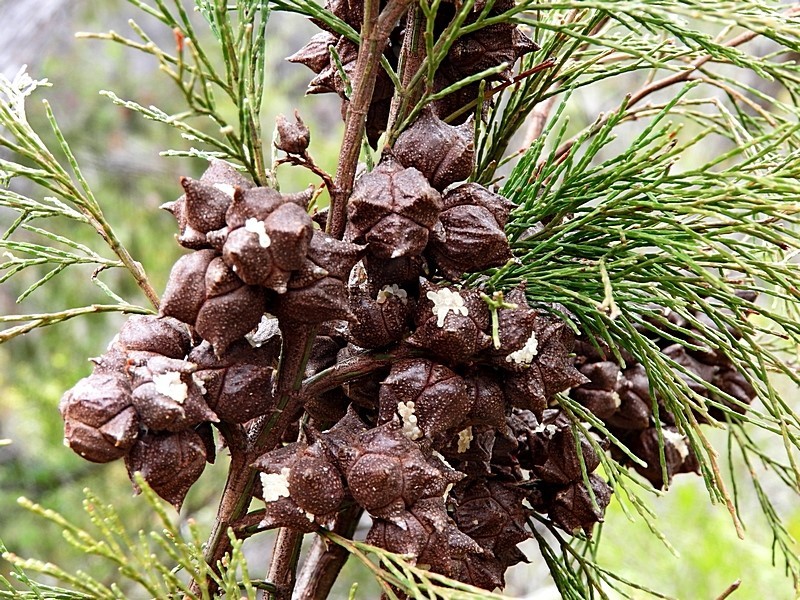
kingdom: Plantae
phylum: Tracheophyta
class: Pinopsida
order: Pinales
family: Cupressaceae
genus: Callitris
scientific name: Callitris rhomboidea
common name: Illawara mountain pine
